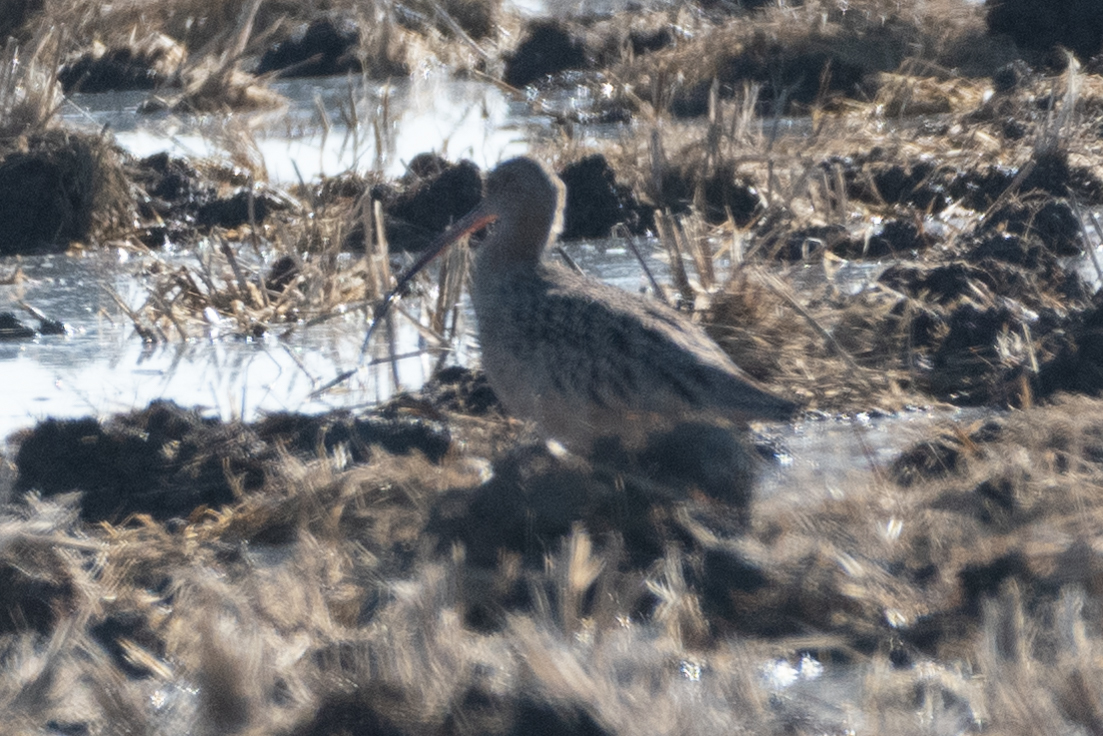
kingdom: Animalia
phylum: Chordata
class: Aves
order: Charadriiformes
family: Scolopacidae
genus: Numenius
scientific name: Numenius americanus
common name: Long-billed curlew
